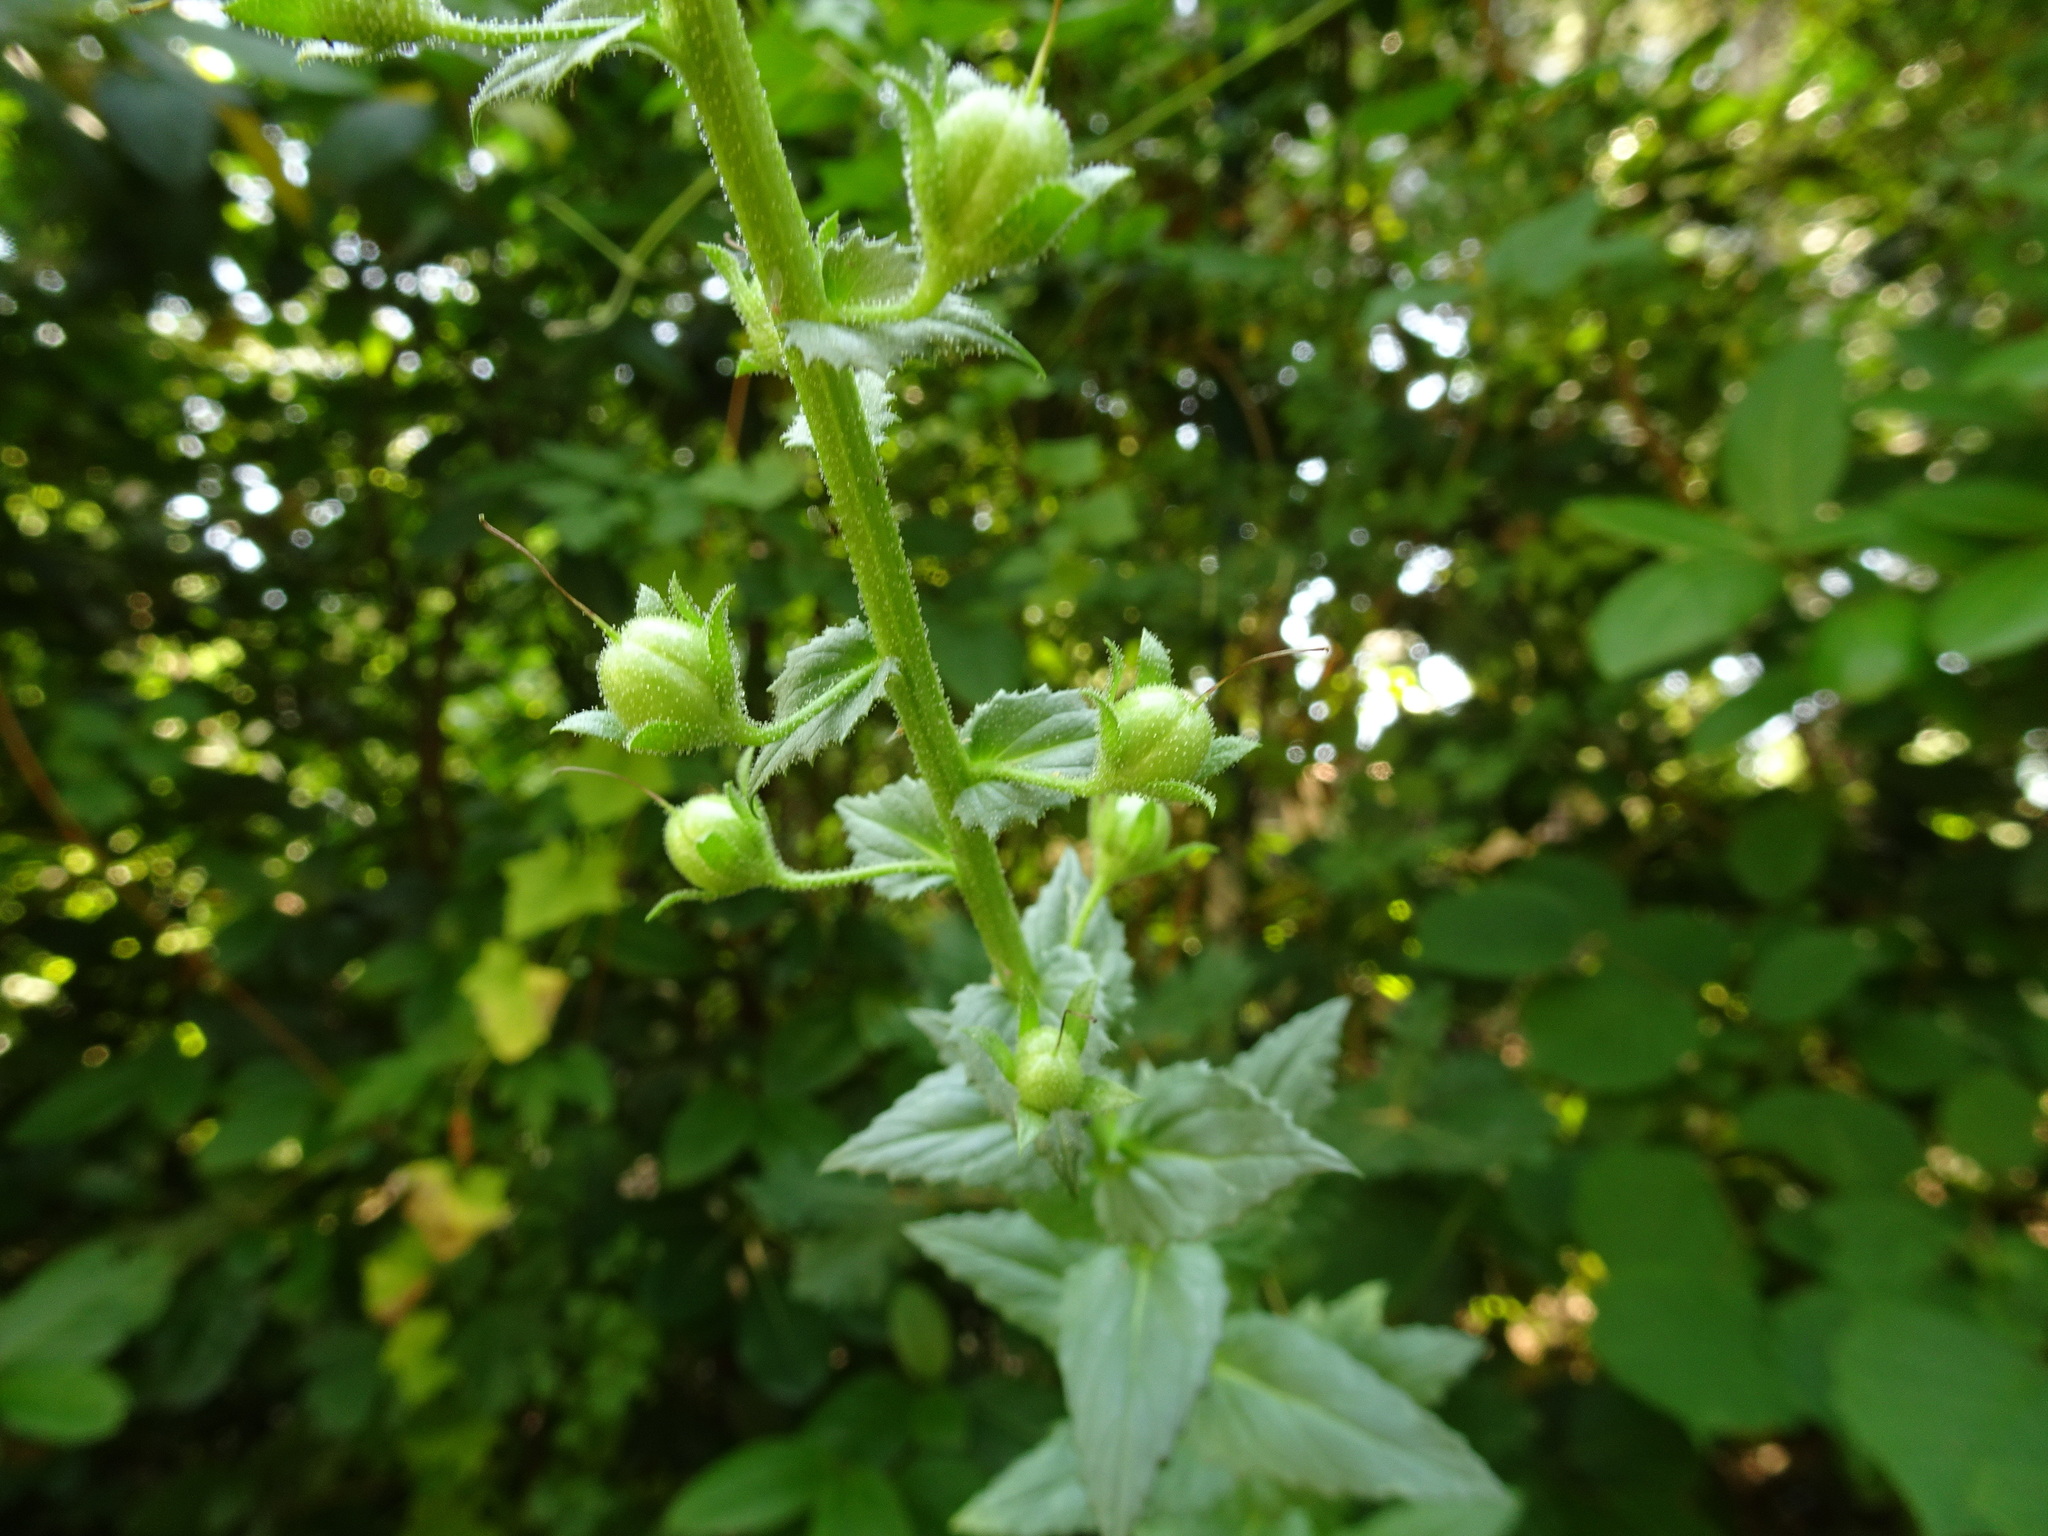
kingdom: Plantae
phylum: Tracheophyta
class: Magnoliopsida
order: Lamiales
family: Scrophulariaceae
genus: Verbascum
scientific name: Verbascum blattaria
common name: Moth mullein
